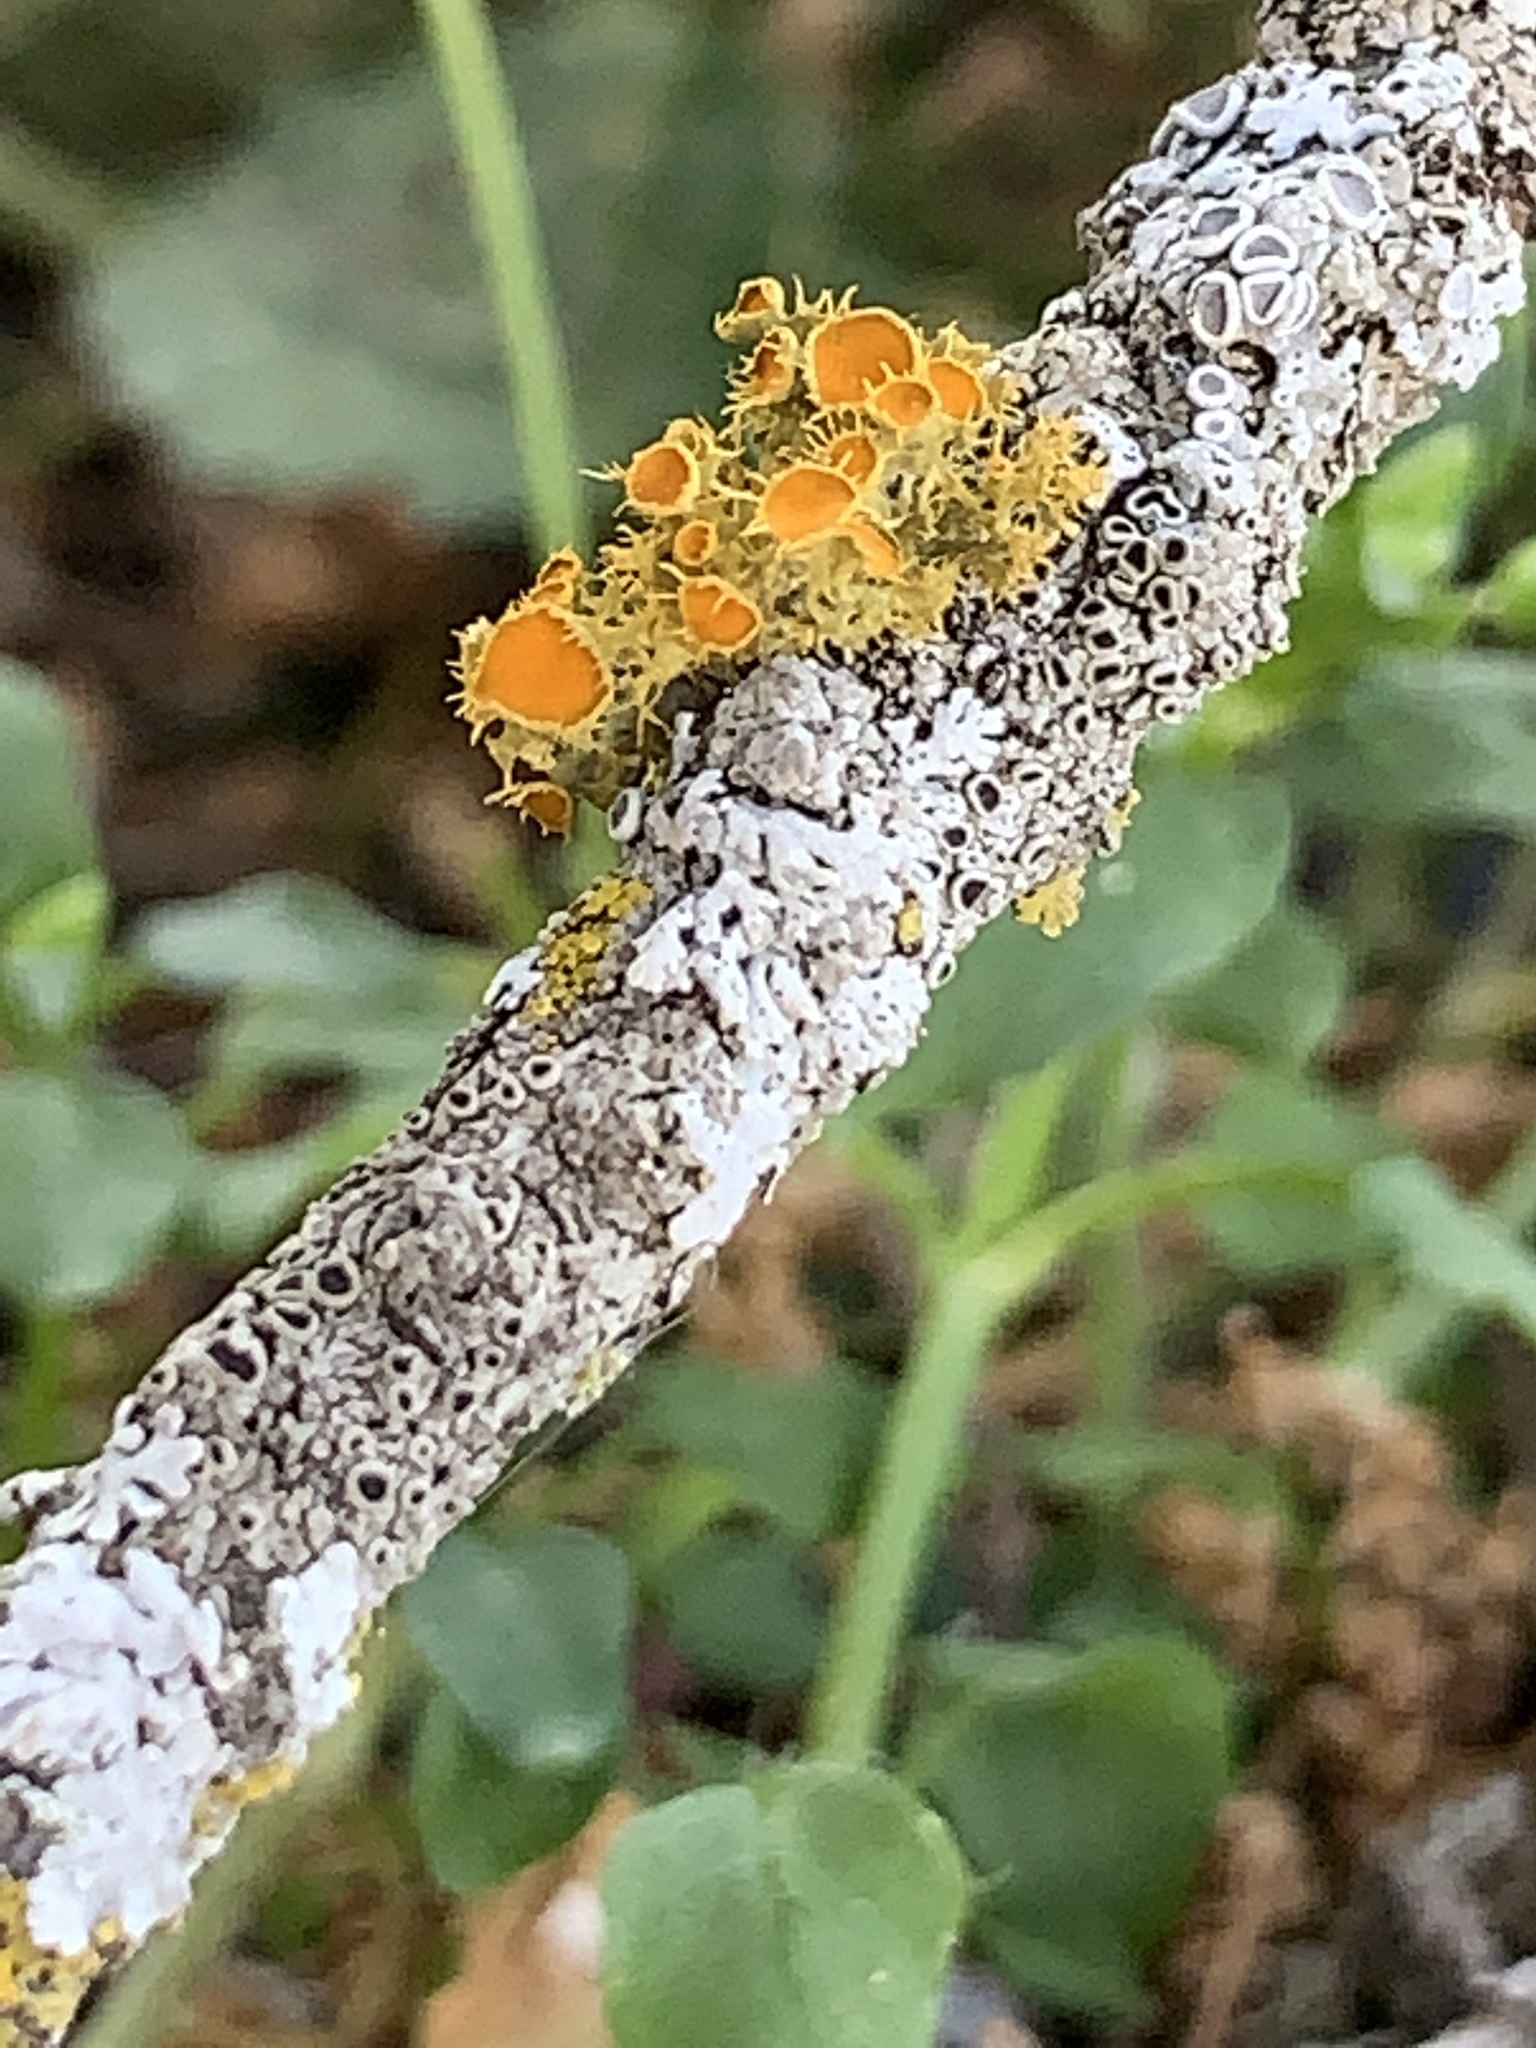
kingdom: Fungi
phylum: Ascomycota
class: Lecanoromycetes
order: Teloschistales
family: Teloschistaceae
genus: Niorma
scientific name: Niorma chrysophthalma
